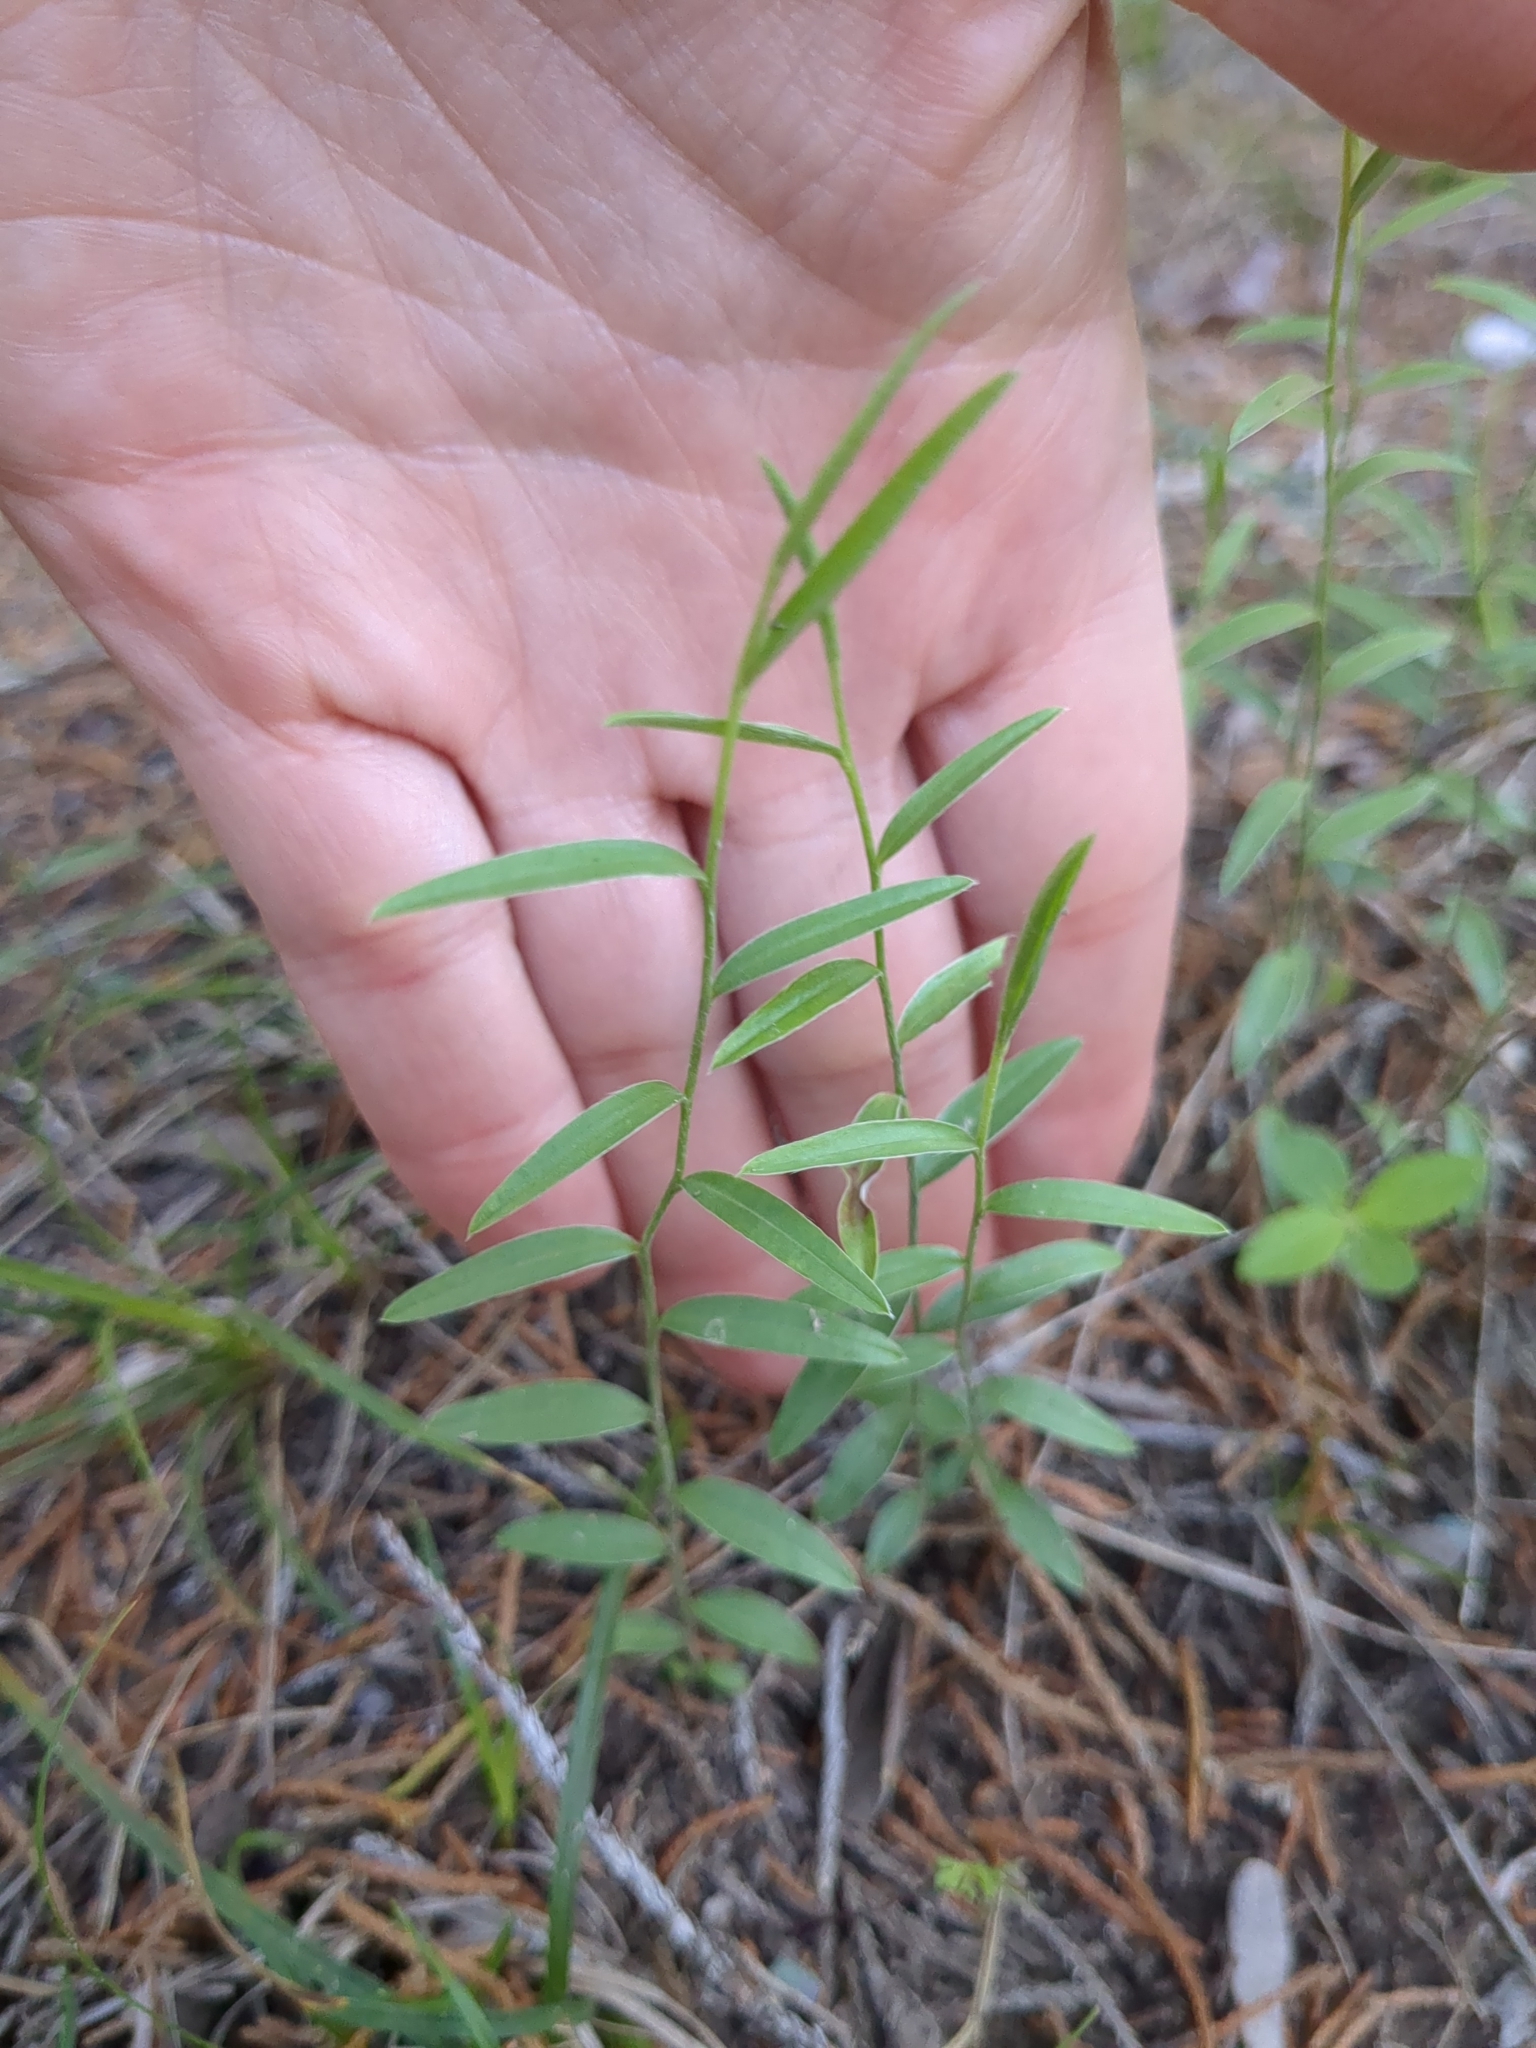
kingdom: Plantae
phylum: Tracheophyta
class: Magnoliopsida
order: Solanales
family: Convolvulaceae
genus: Evolvulus
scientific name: Evolvulus sericeus
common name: Blue dots
